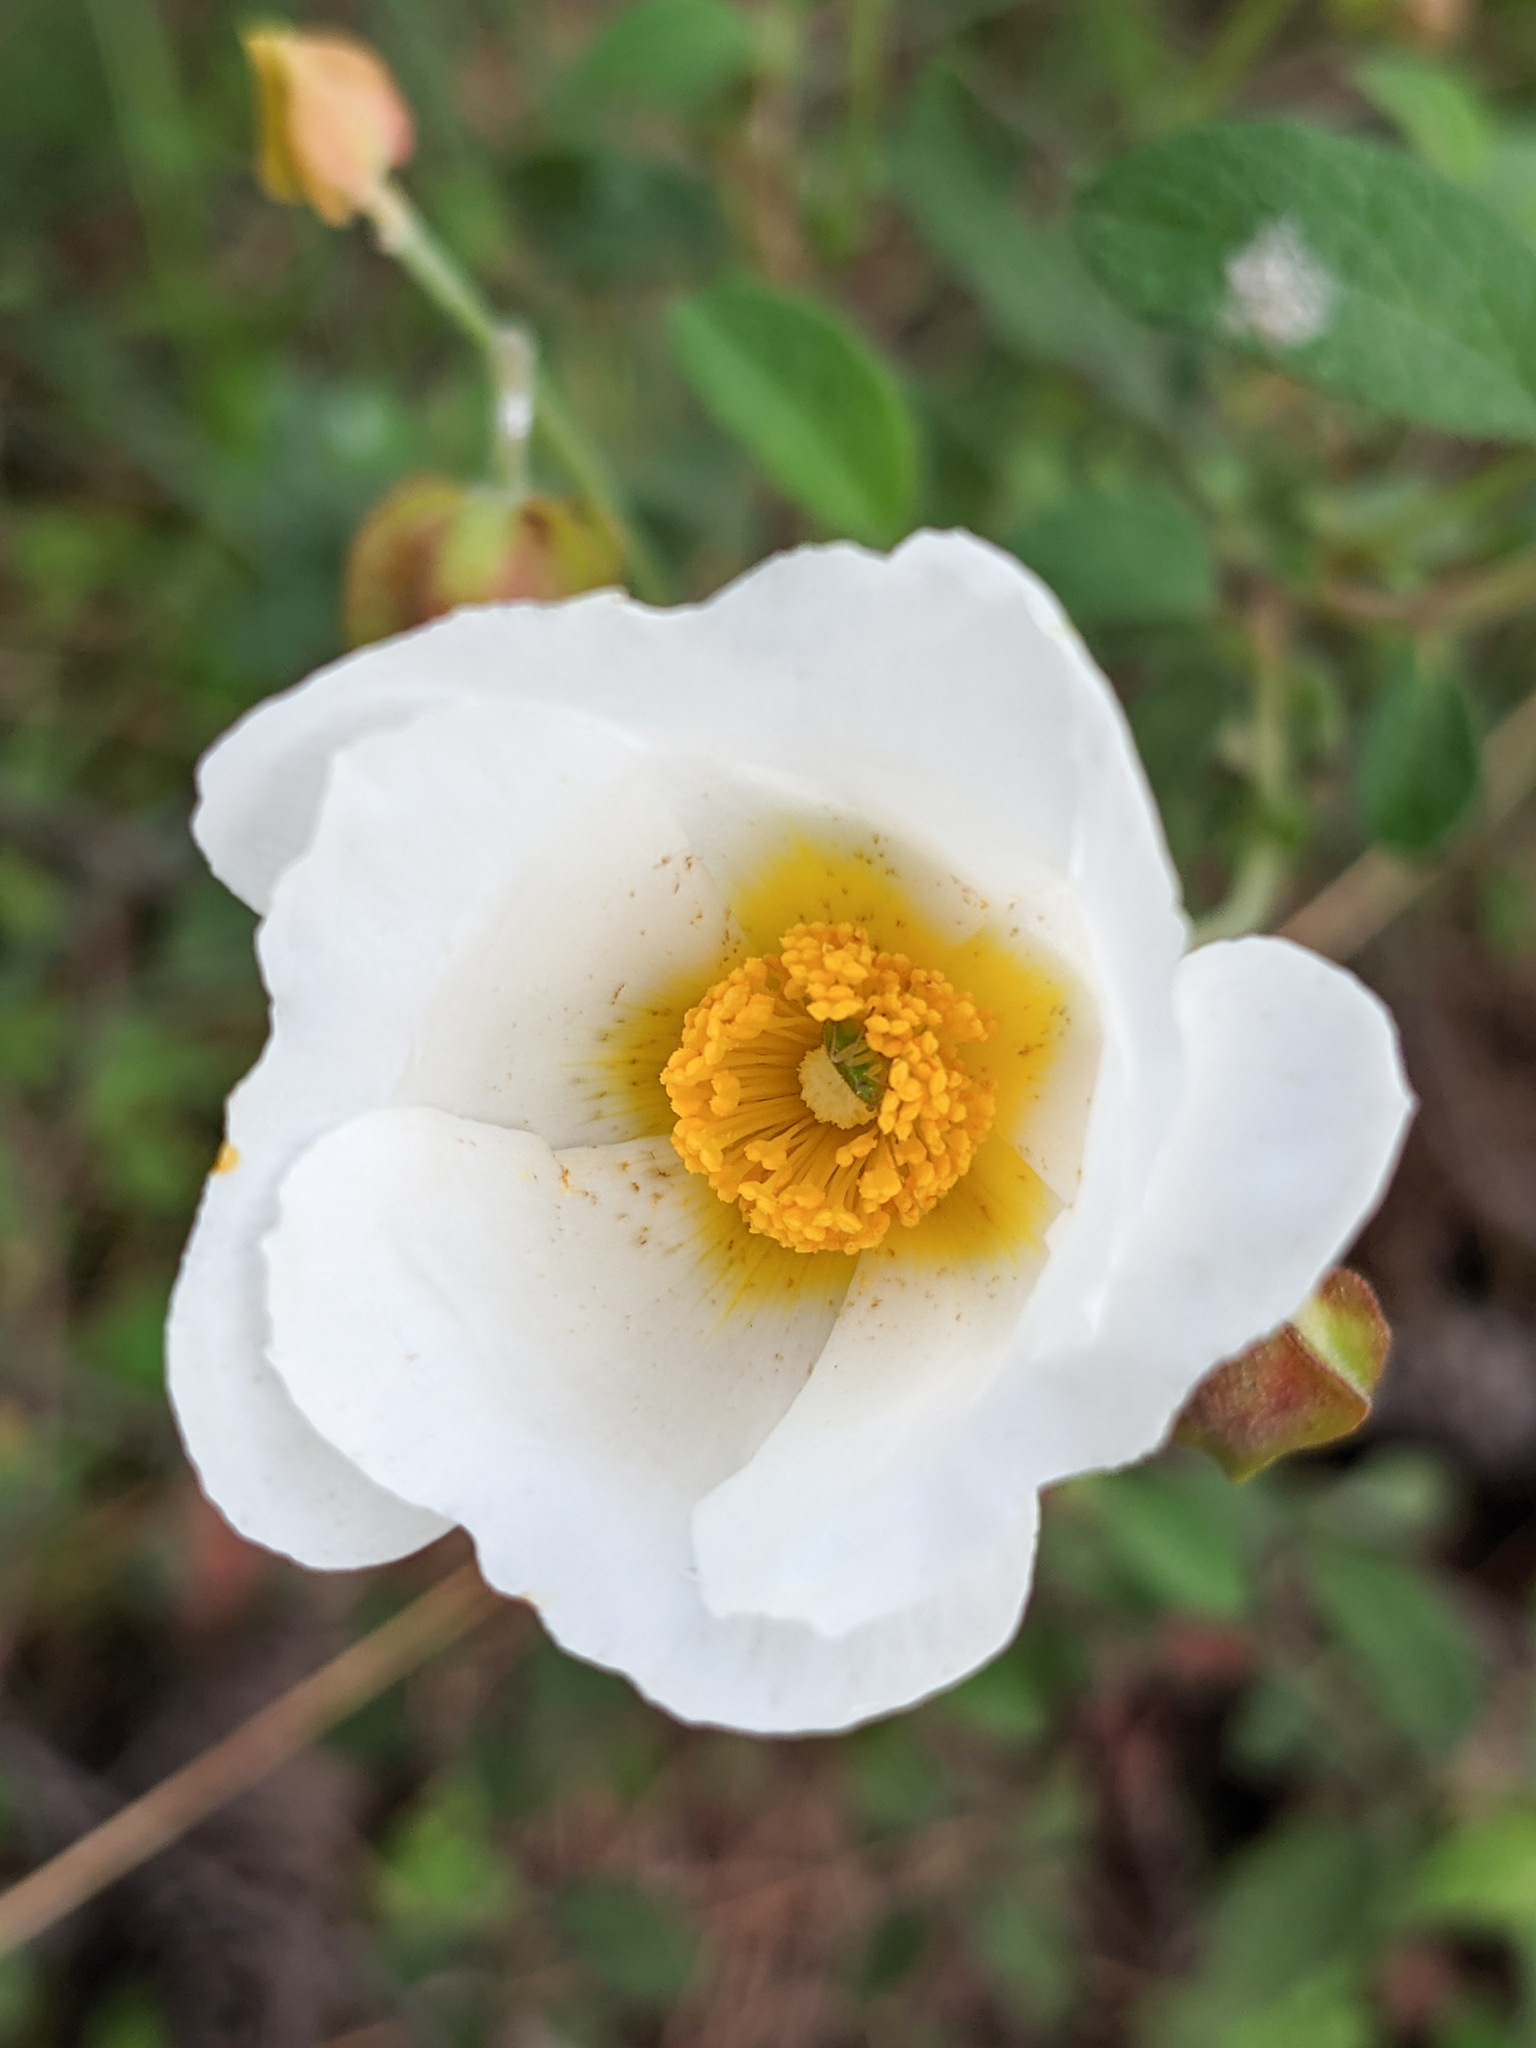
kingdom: Plantae
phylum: Tracheophyta
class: Magnoliopsida
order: Malvales
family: Cistaceae
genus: Cistus
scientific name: Cistus salviifolius
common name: Salvia cistus
